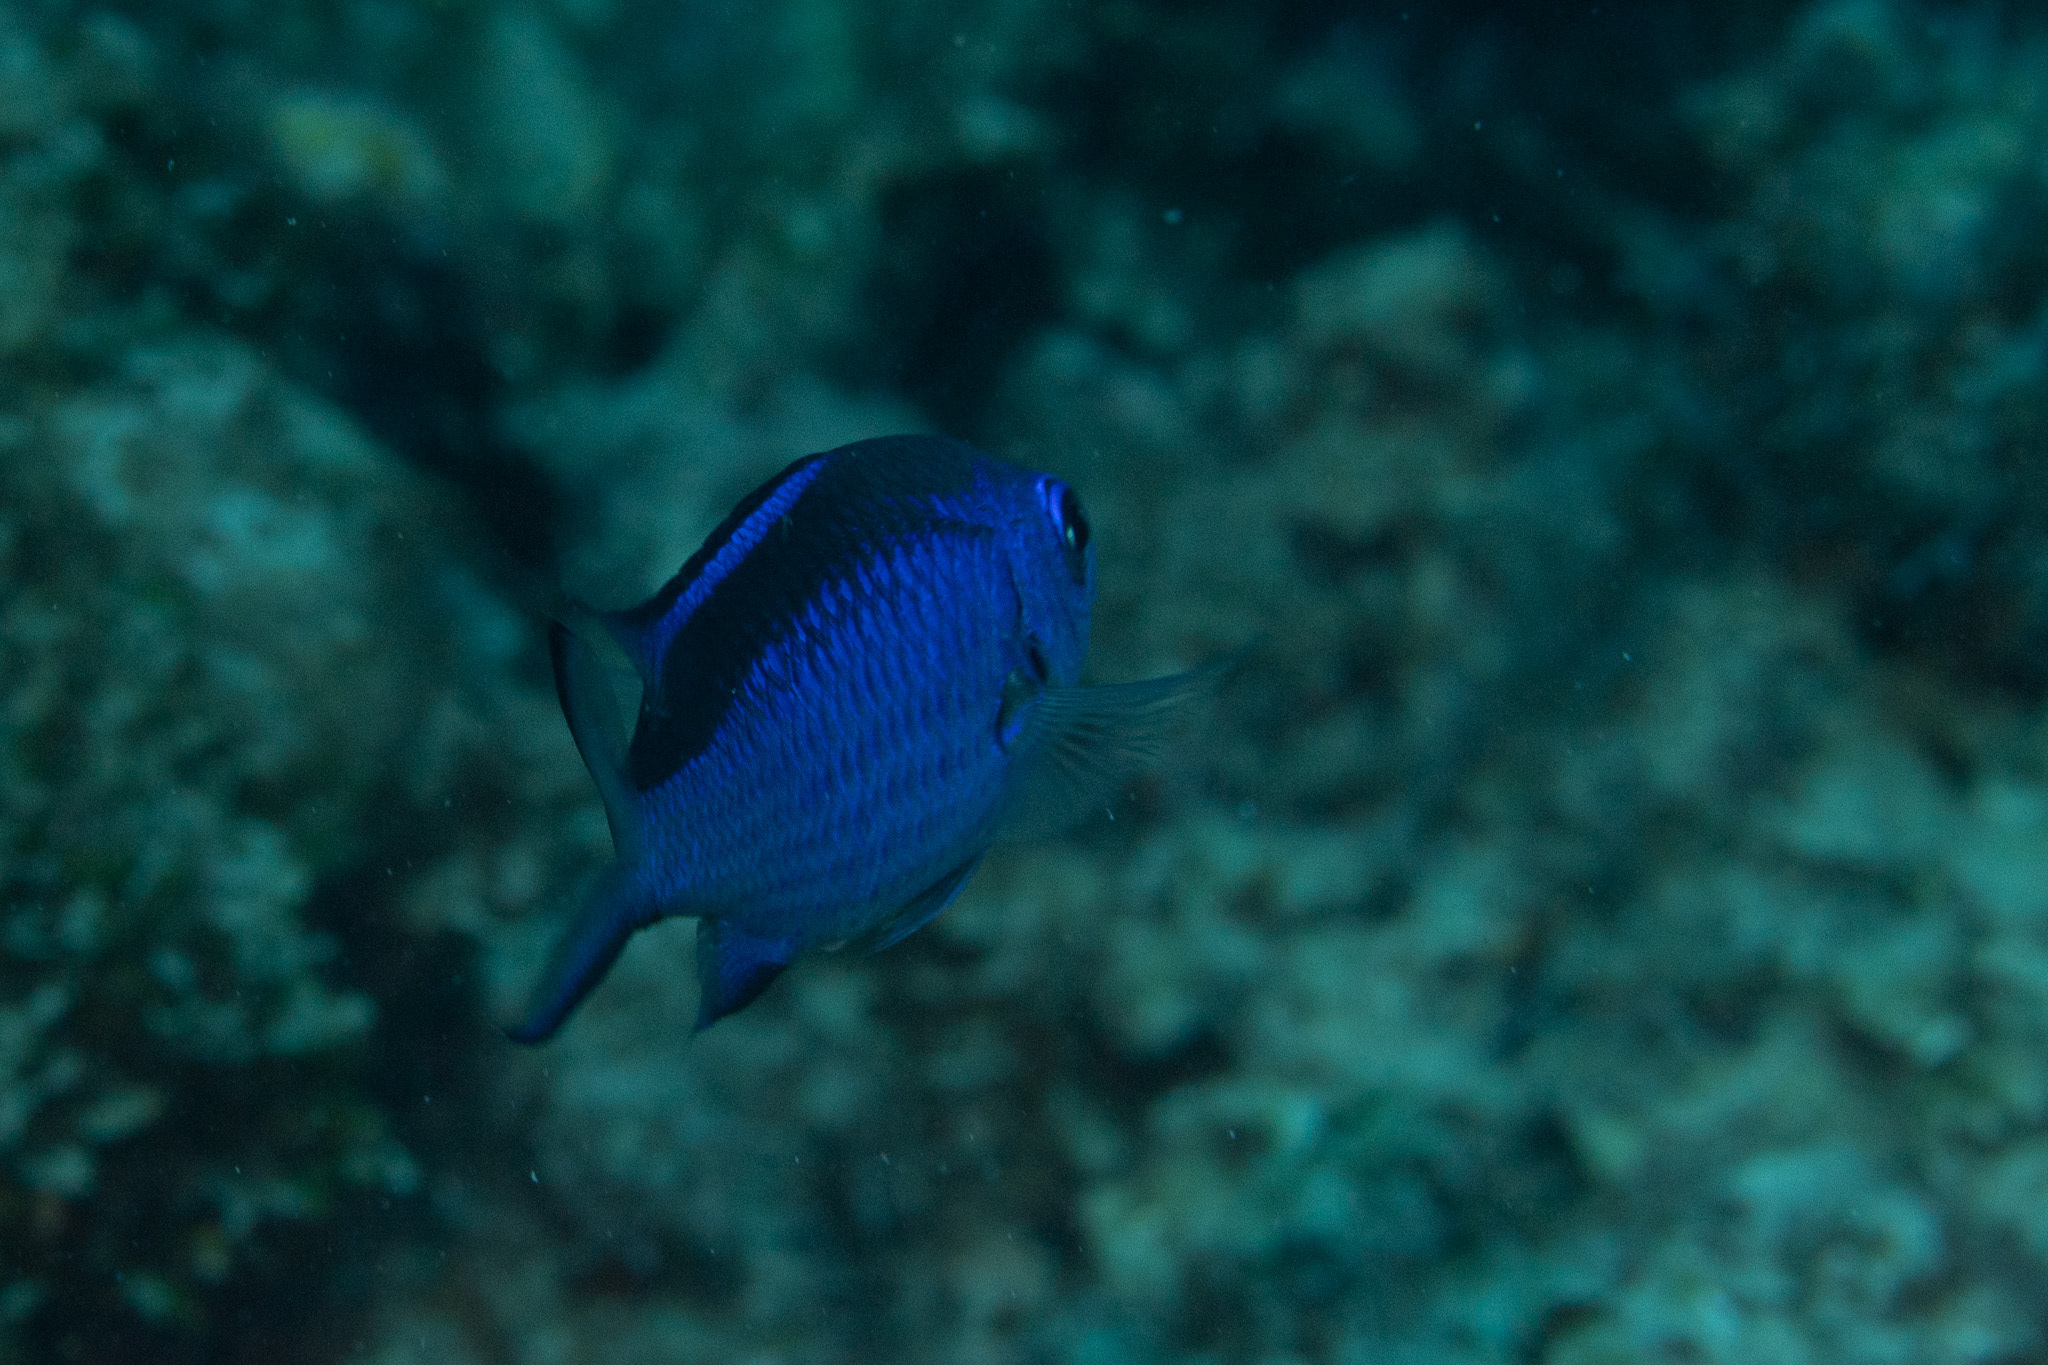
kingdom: Animalia
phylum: Chordata
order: Perciformes
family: Pomacentridae
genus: Chromis
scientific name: Chromis cyanea
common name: Blue chromis
